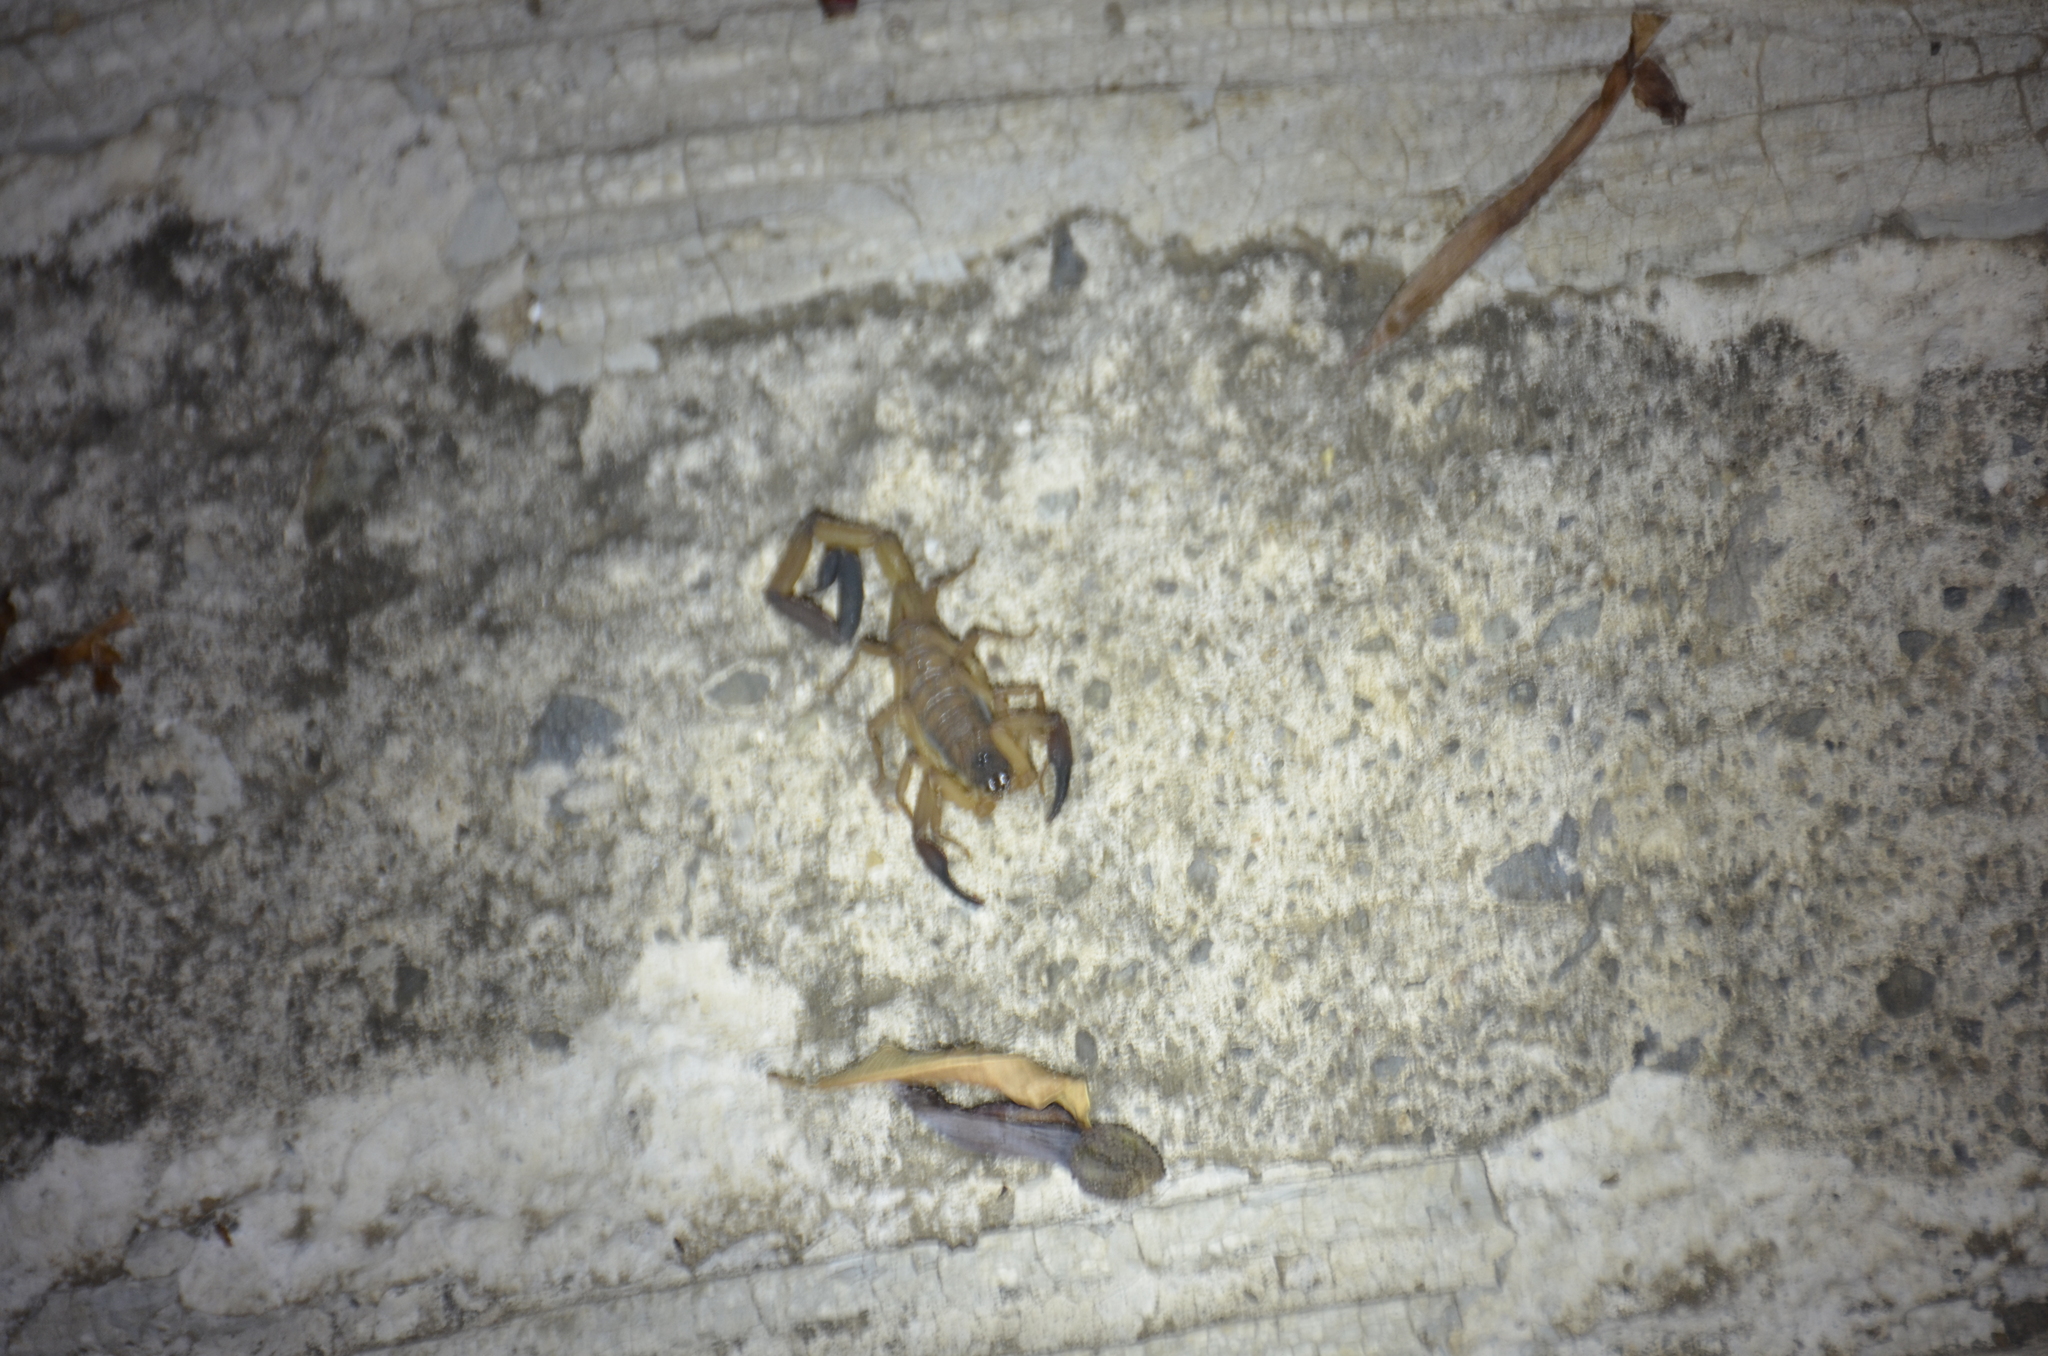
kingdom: Animalia
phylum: Arthropoda
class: Arachnida
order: Scorpiones
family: Buthidae
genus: Centruroides
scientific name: Centruroides limbatus
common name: Scorpions
